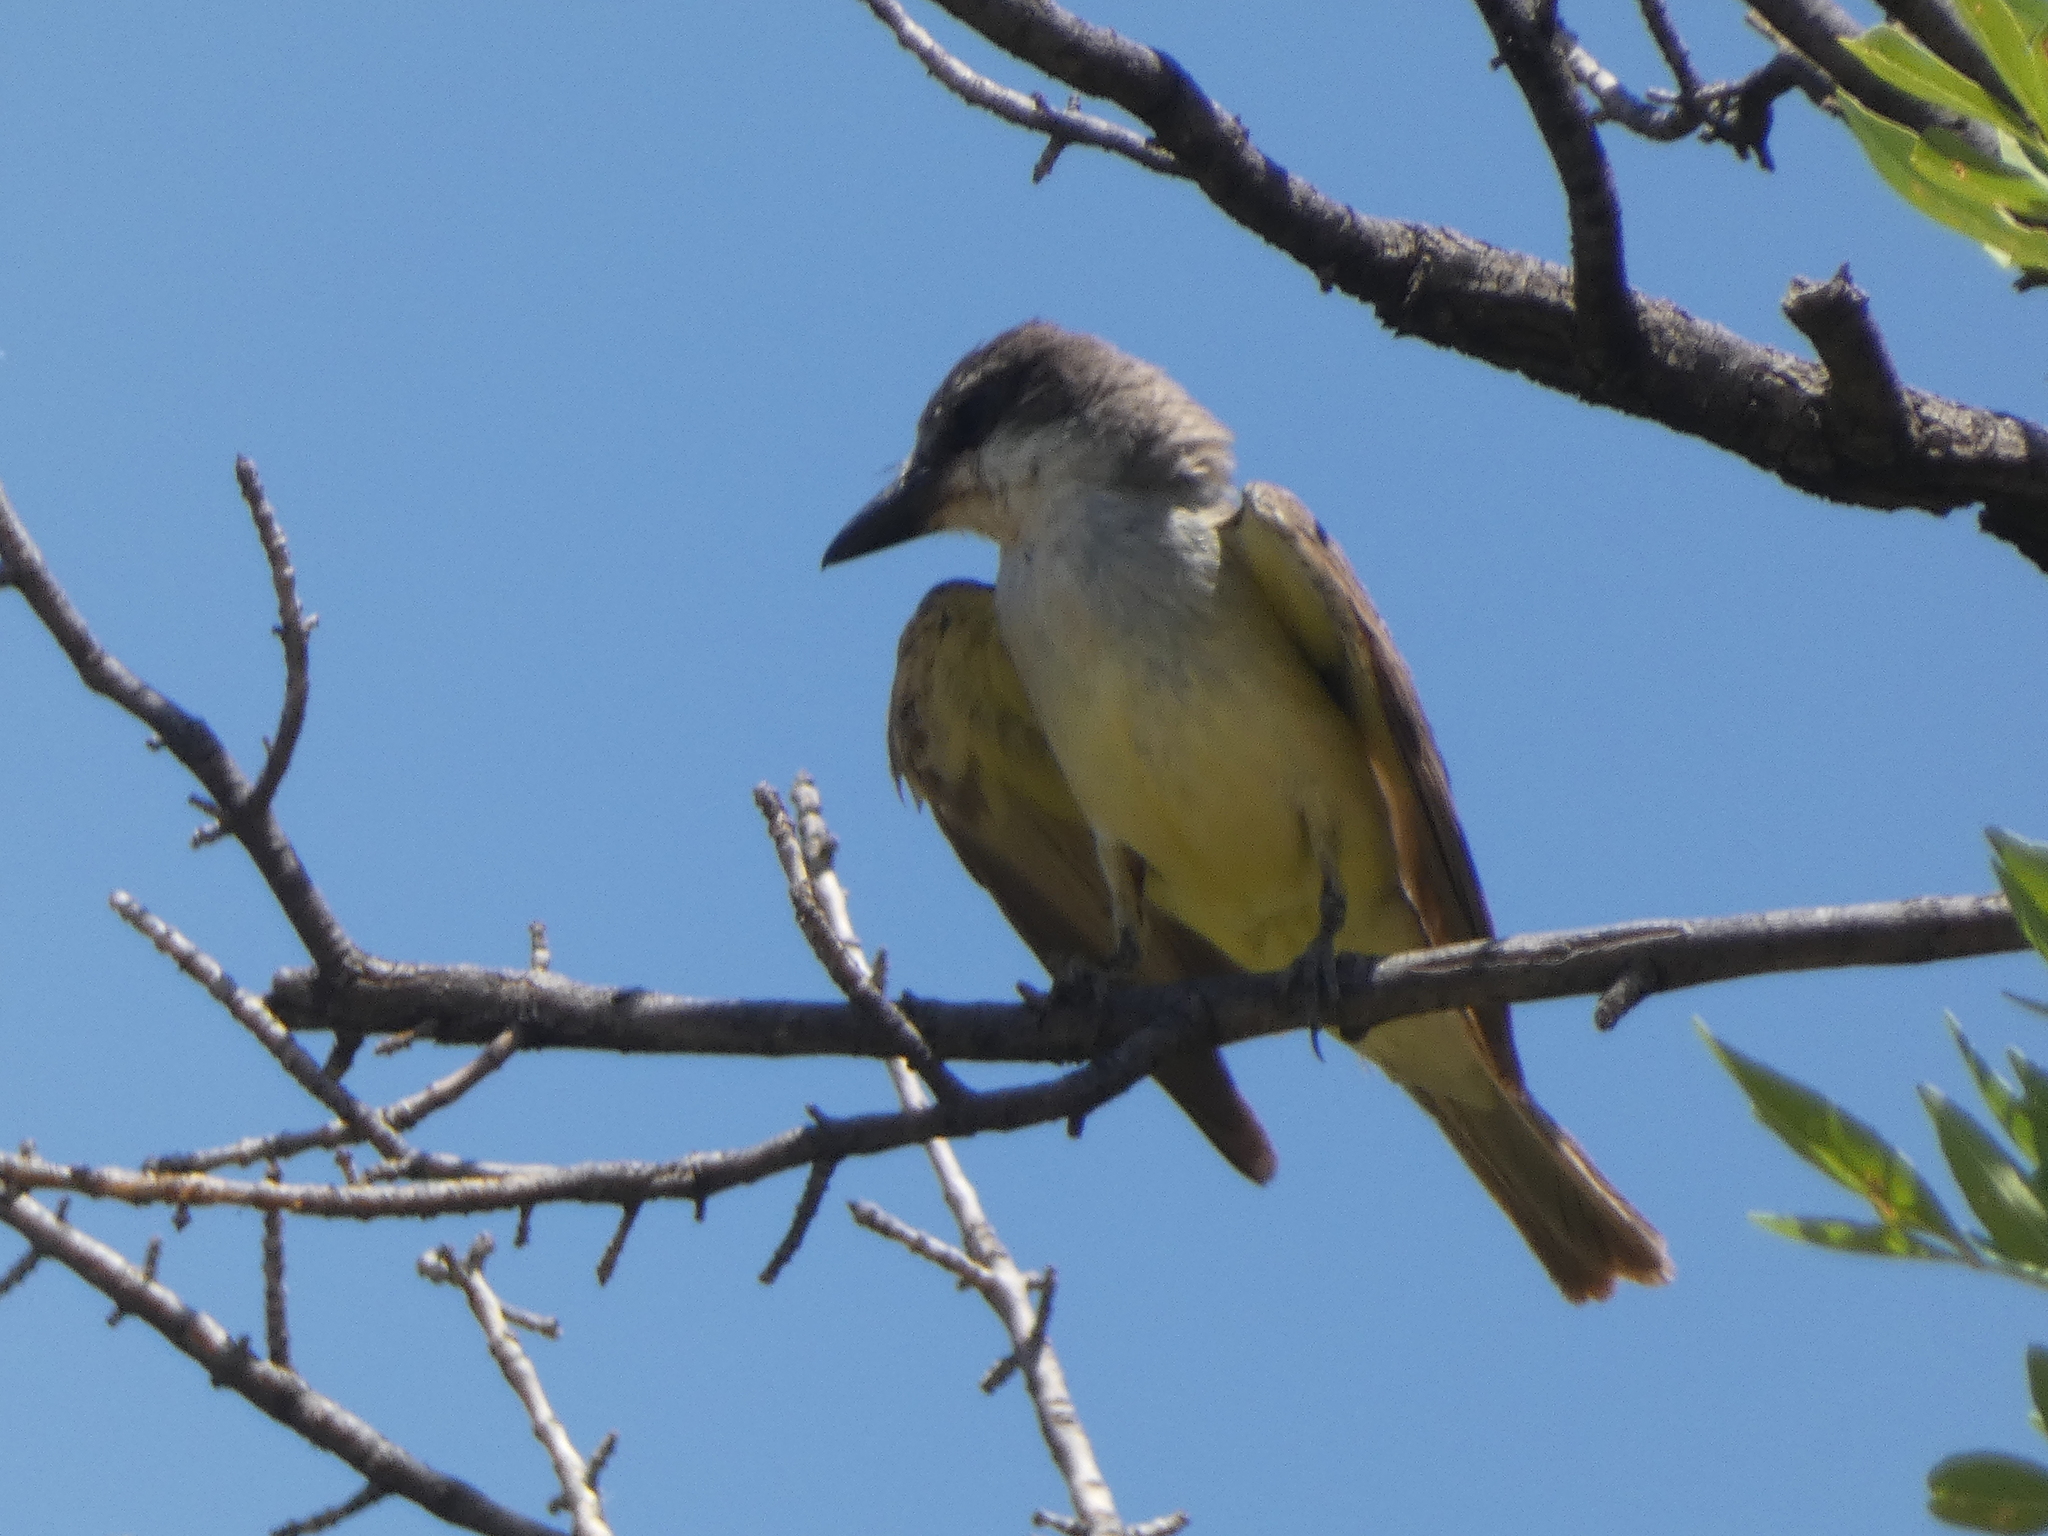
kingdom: Animalia
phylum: Chordata
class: Aves
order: Passeriformes
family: Tyrannidae
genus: Tyrannus
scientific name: Tyrannus crassirostris
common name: Thick-billed kingbird
